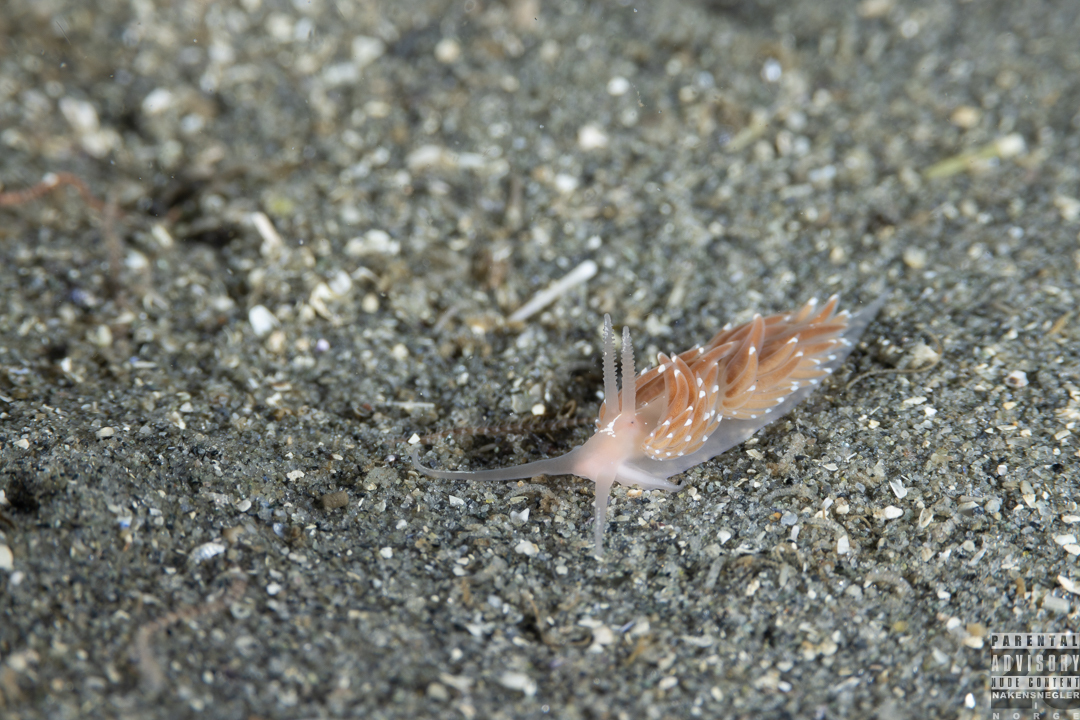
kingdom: Animalia
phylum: Mollusca
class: Gastropoda
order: Nudibranchia
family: Facelinidae
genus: Facelina
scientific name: Facelina bostoniensis
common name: Boston facelina
